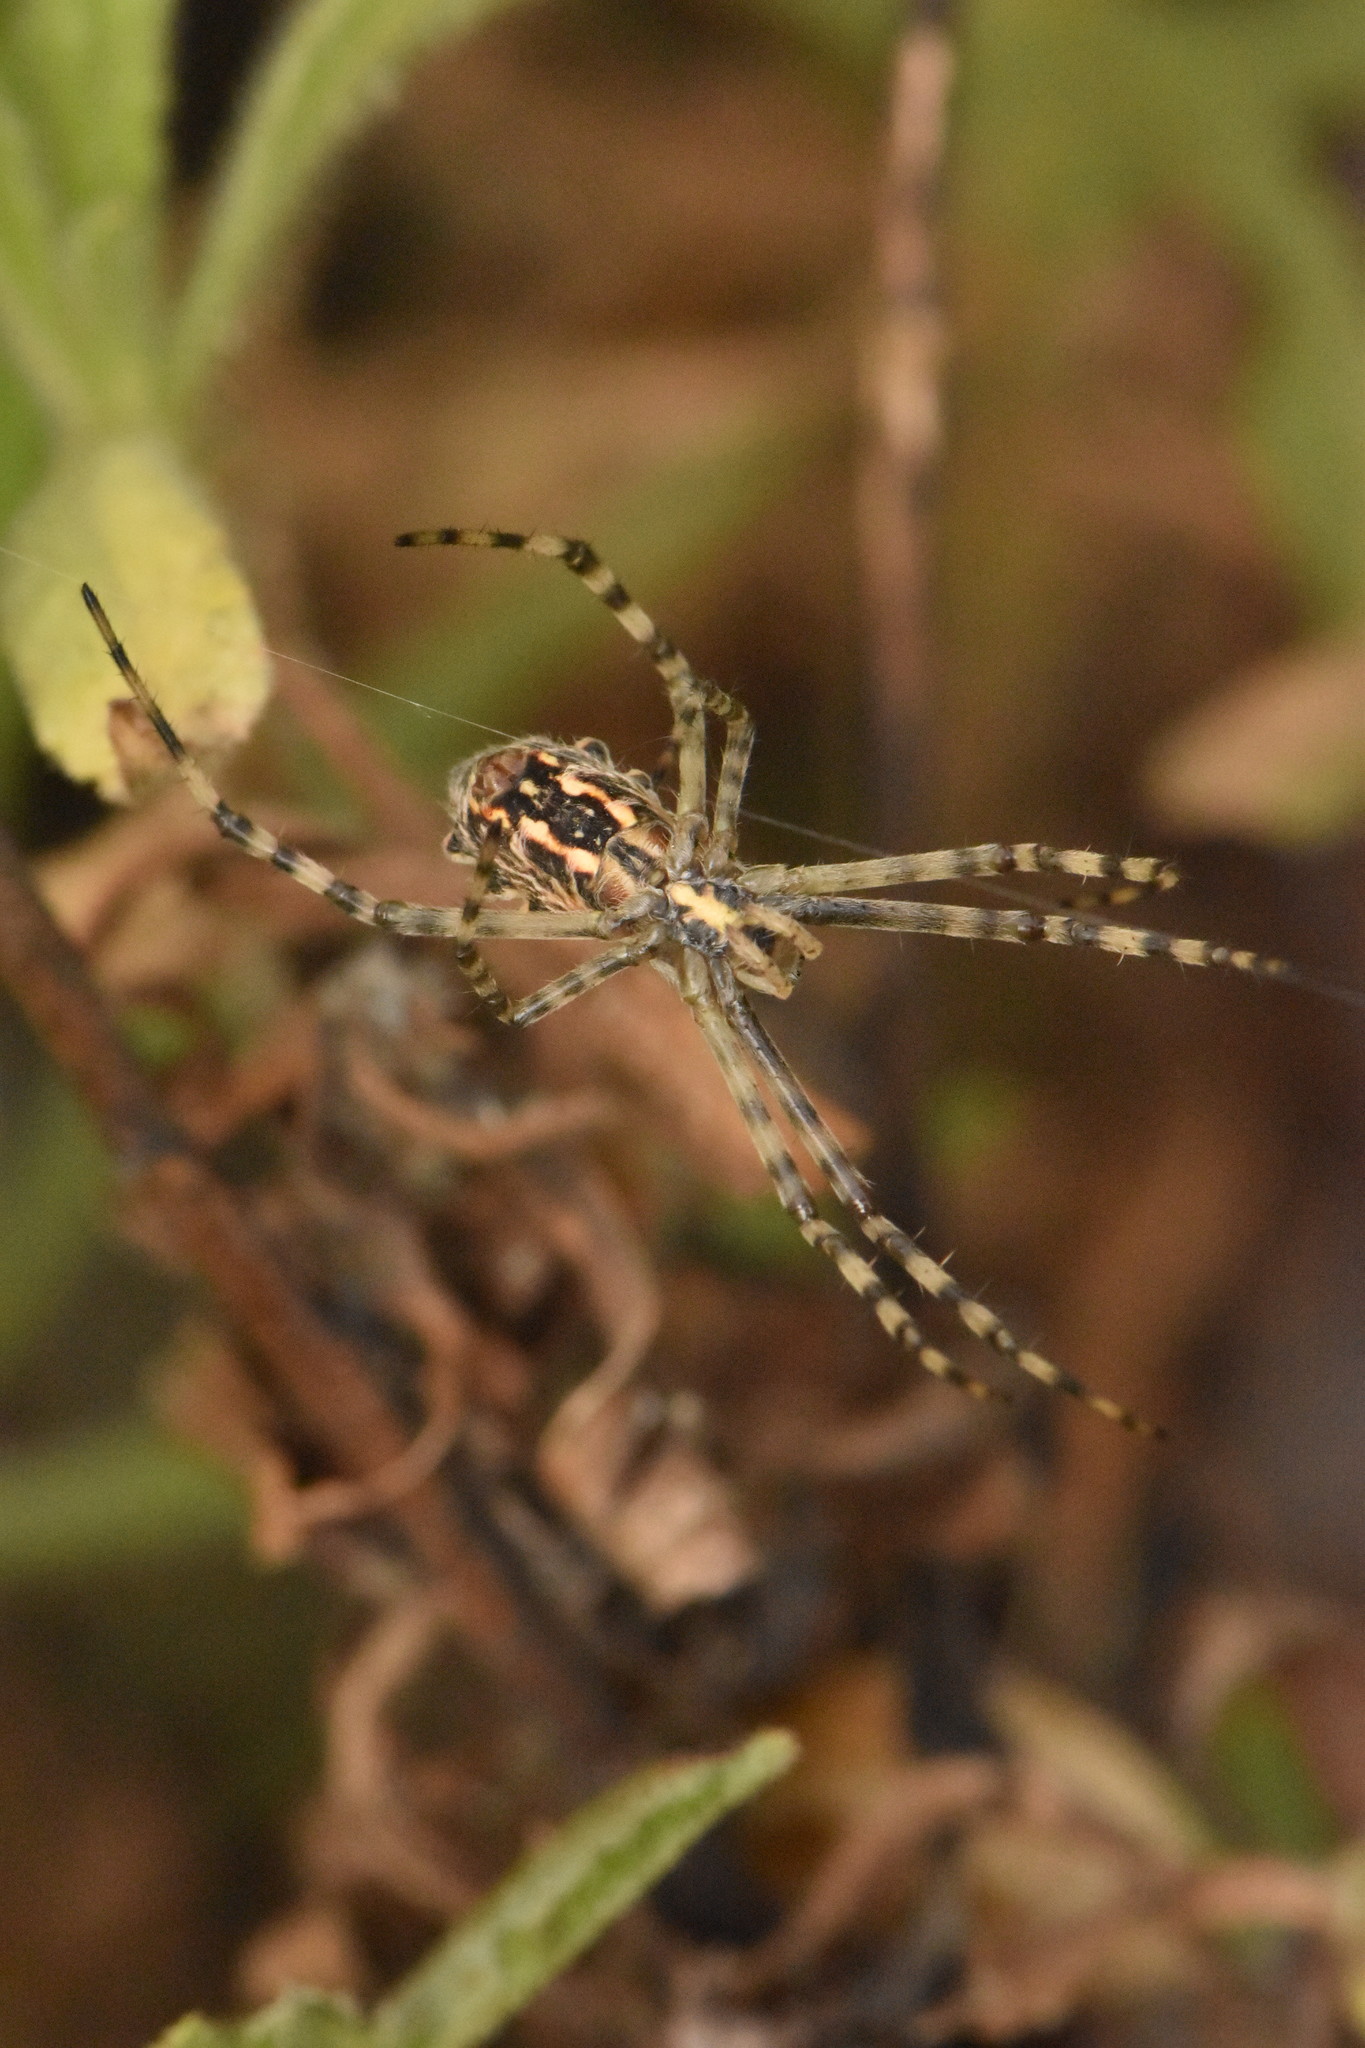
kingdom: Animalia
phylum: Arthropoda
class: Arachnida
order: Araneae
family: Araneidae
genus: Argiope
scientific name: Argiope lobata
